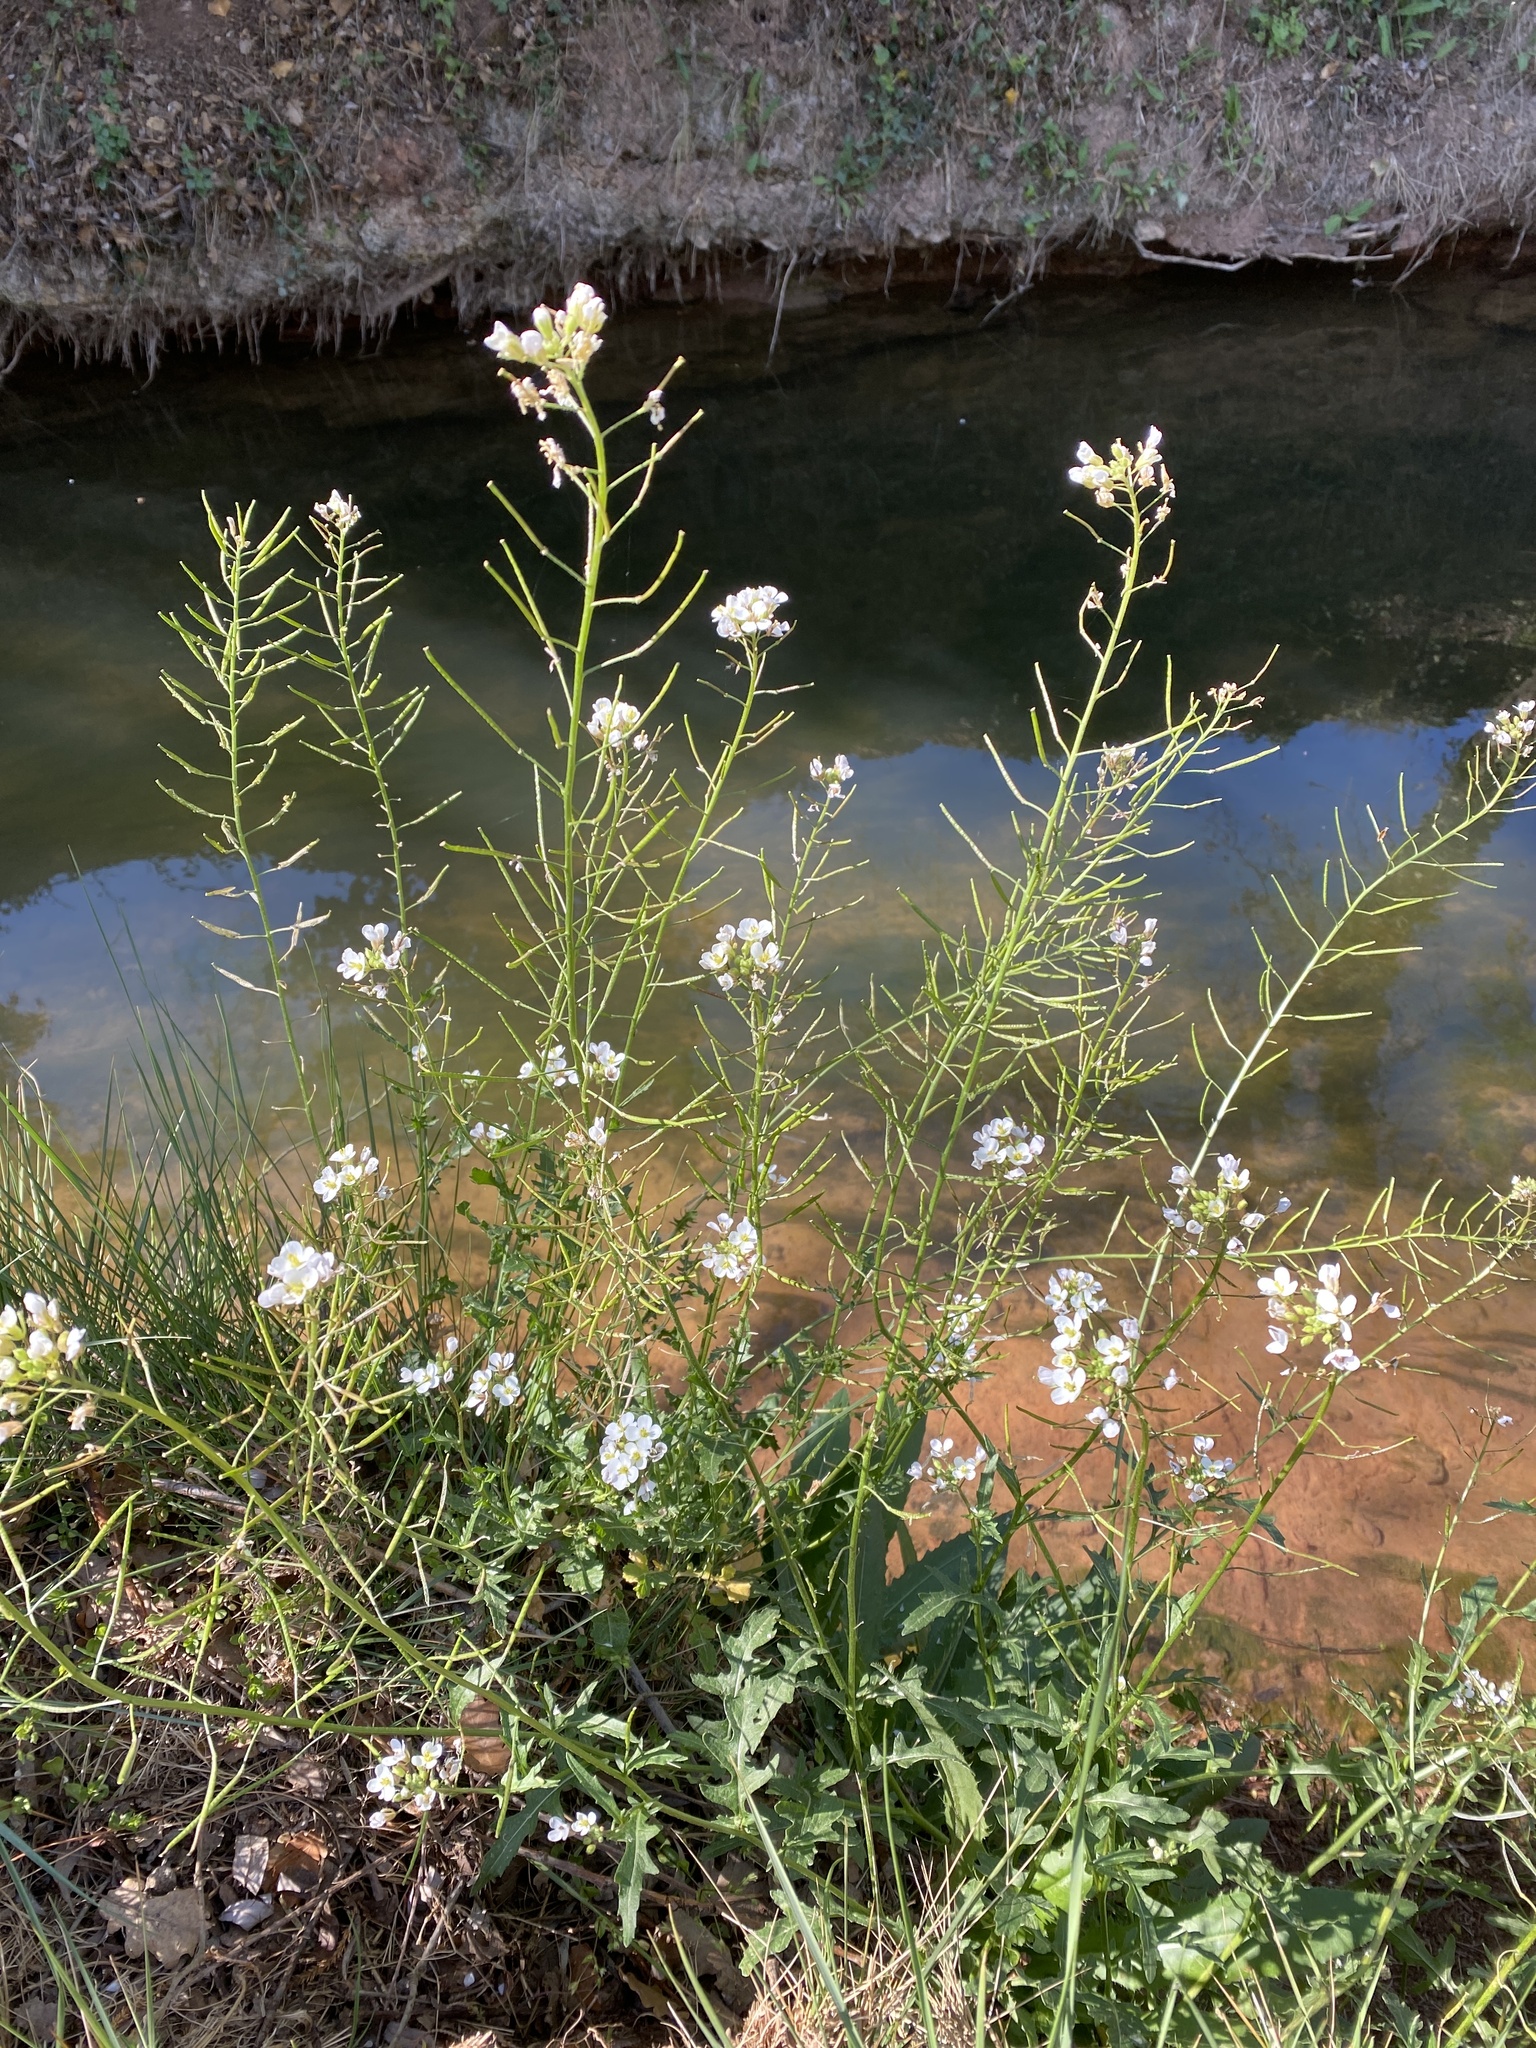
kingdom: Plantae
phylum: Tracheophyta
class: Magnoliopsida
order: Brassicales
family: Brassicaceae
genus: Diplotaxis
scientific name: Diplotaxis erucoides
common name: White rocket
